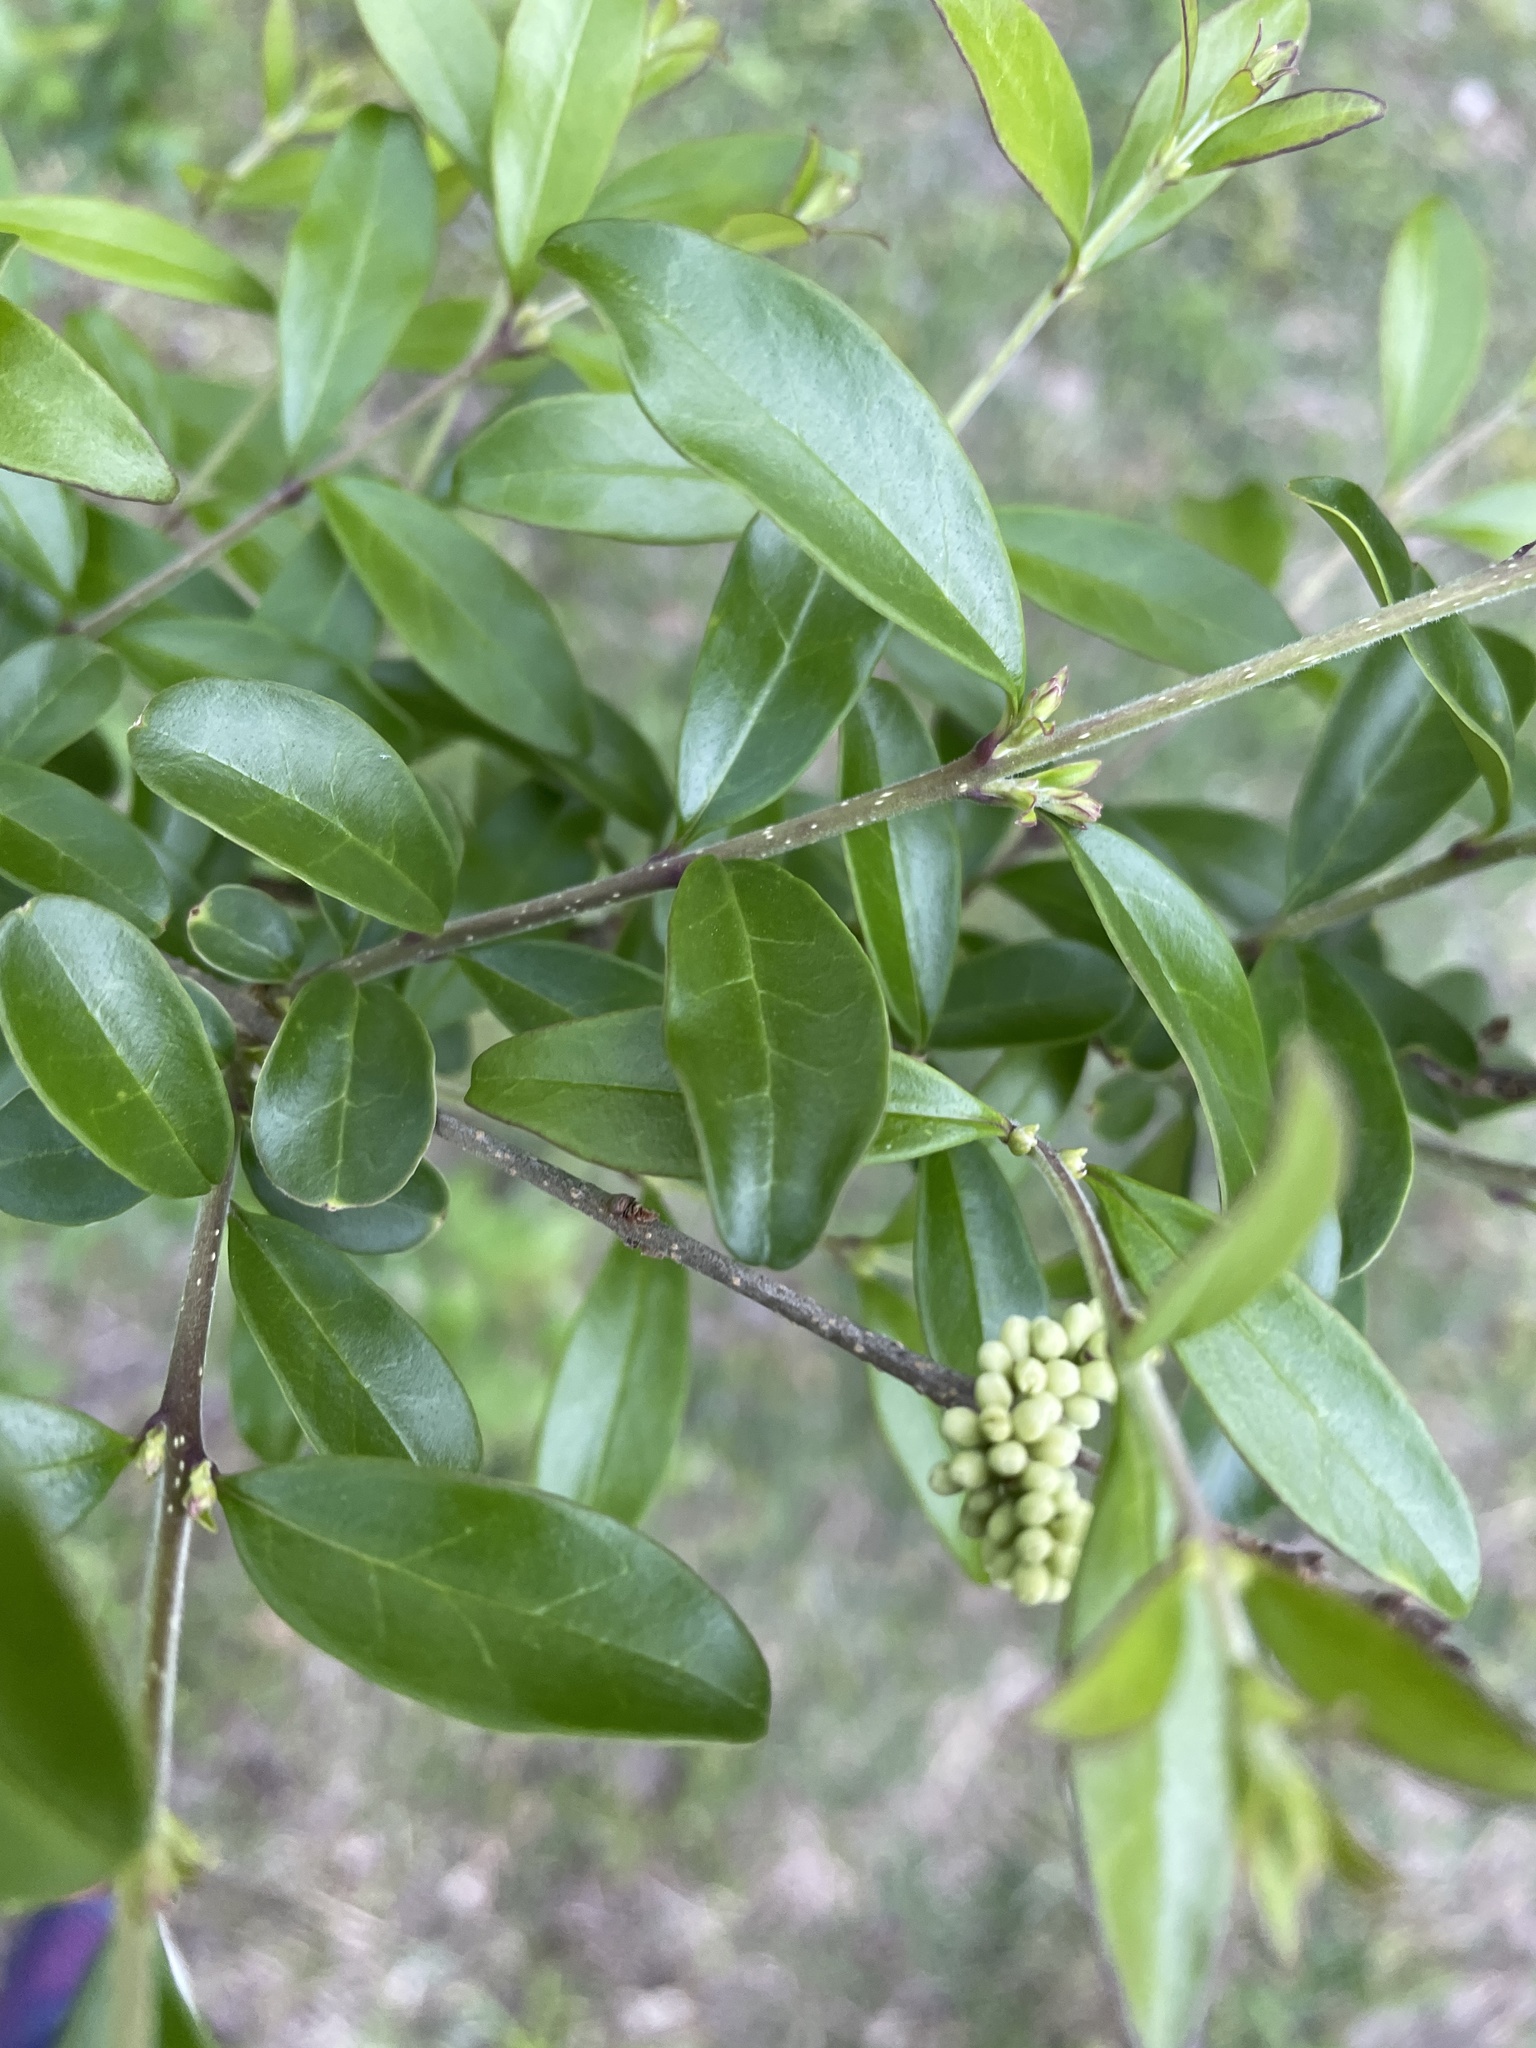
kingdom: Plantae
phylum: Tracheophyta
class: Magnoliopsida
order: Lamiales
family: Oleaceae
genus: Ligustrum
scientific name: Ligustrum quihoui
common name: Waxyleaf privet
